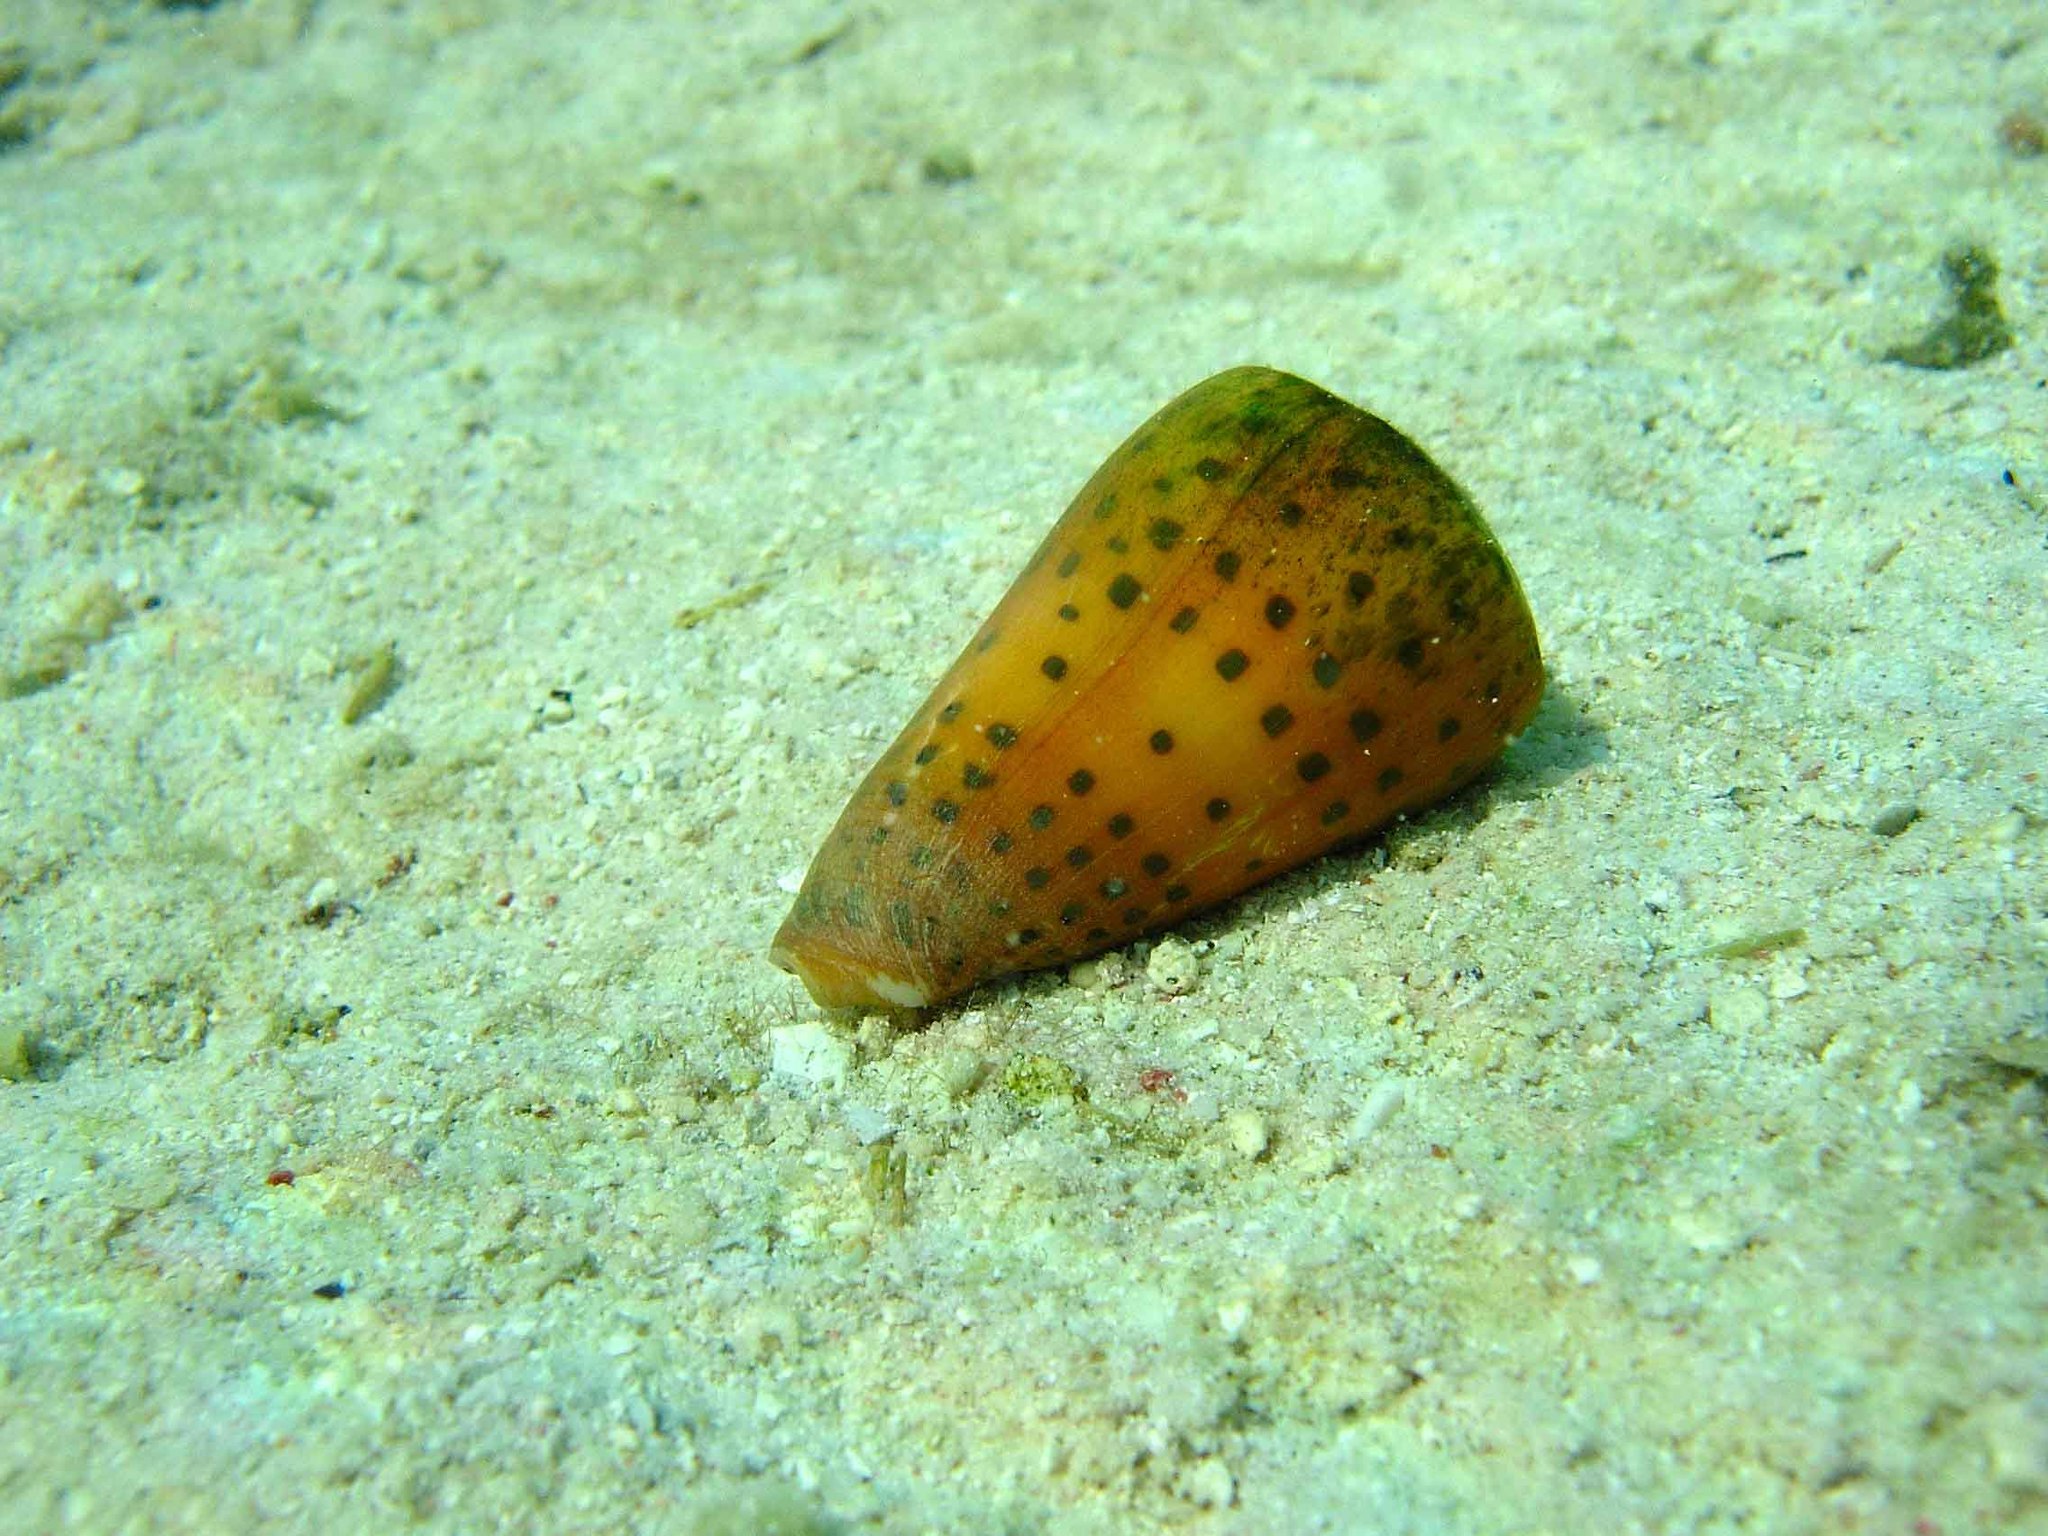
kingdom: Animalia
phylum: Mollusca
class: Gastropoda
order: Neogastropoda
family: Conidae
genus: Conus
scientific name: Conus eburneus
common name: Ivory cone
